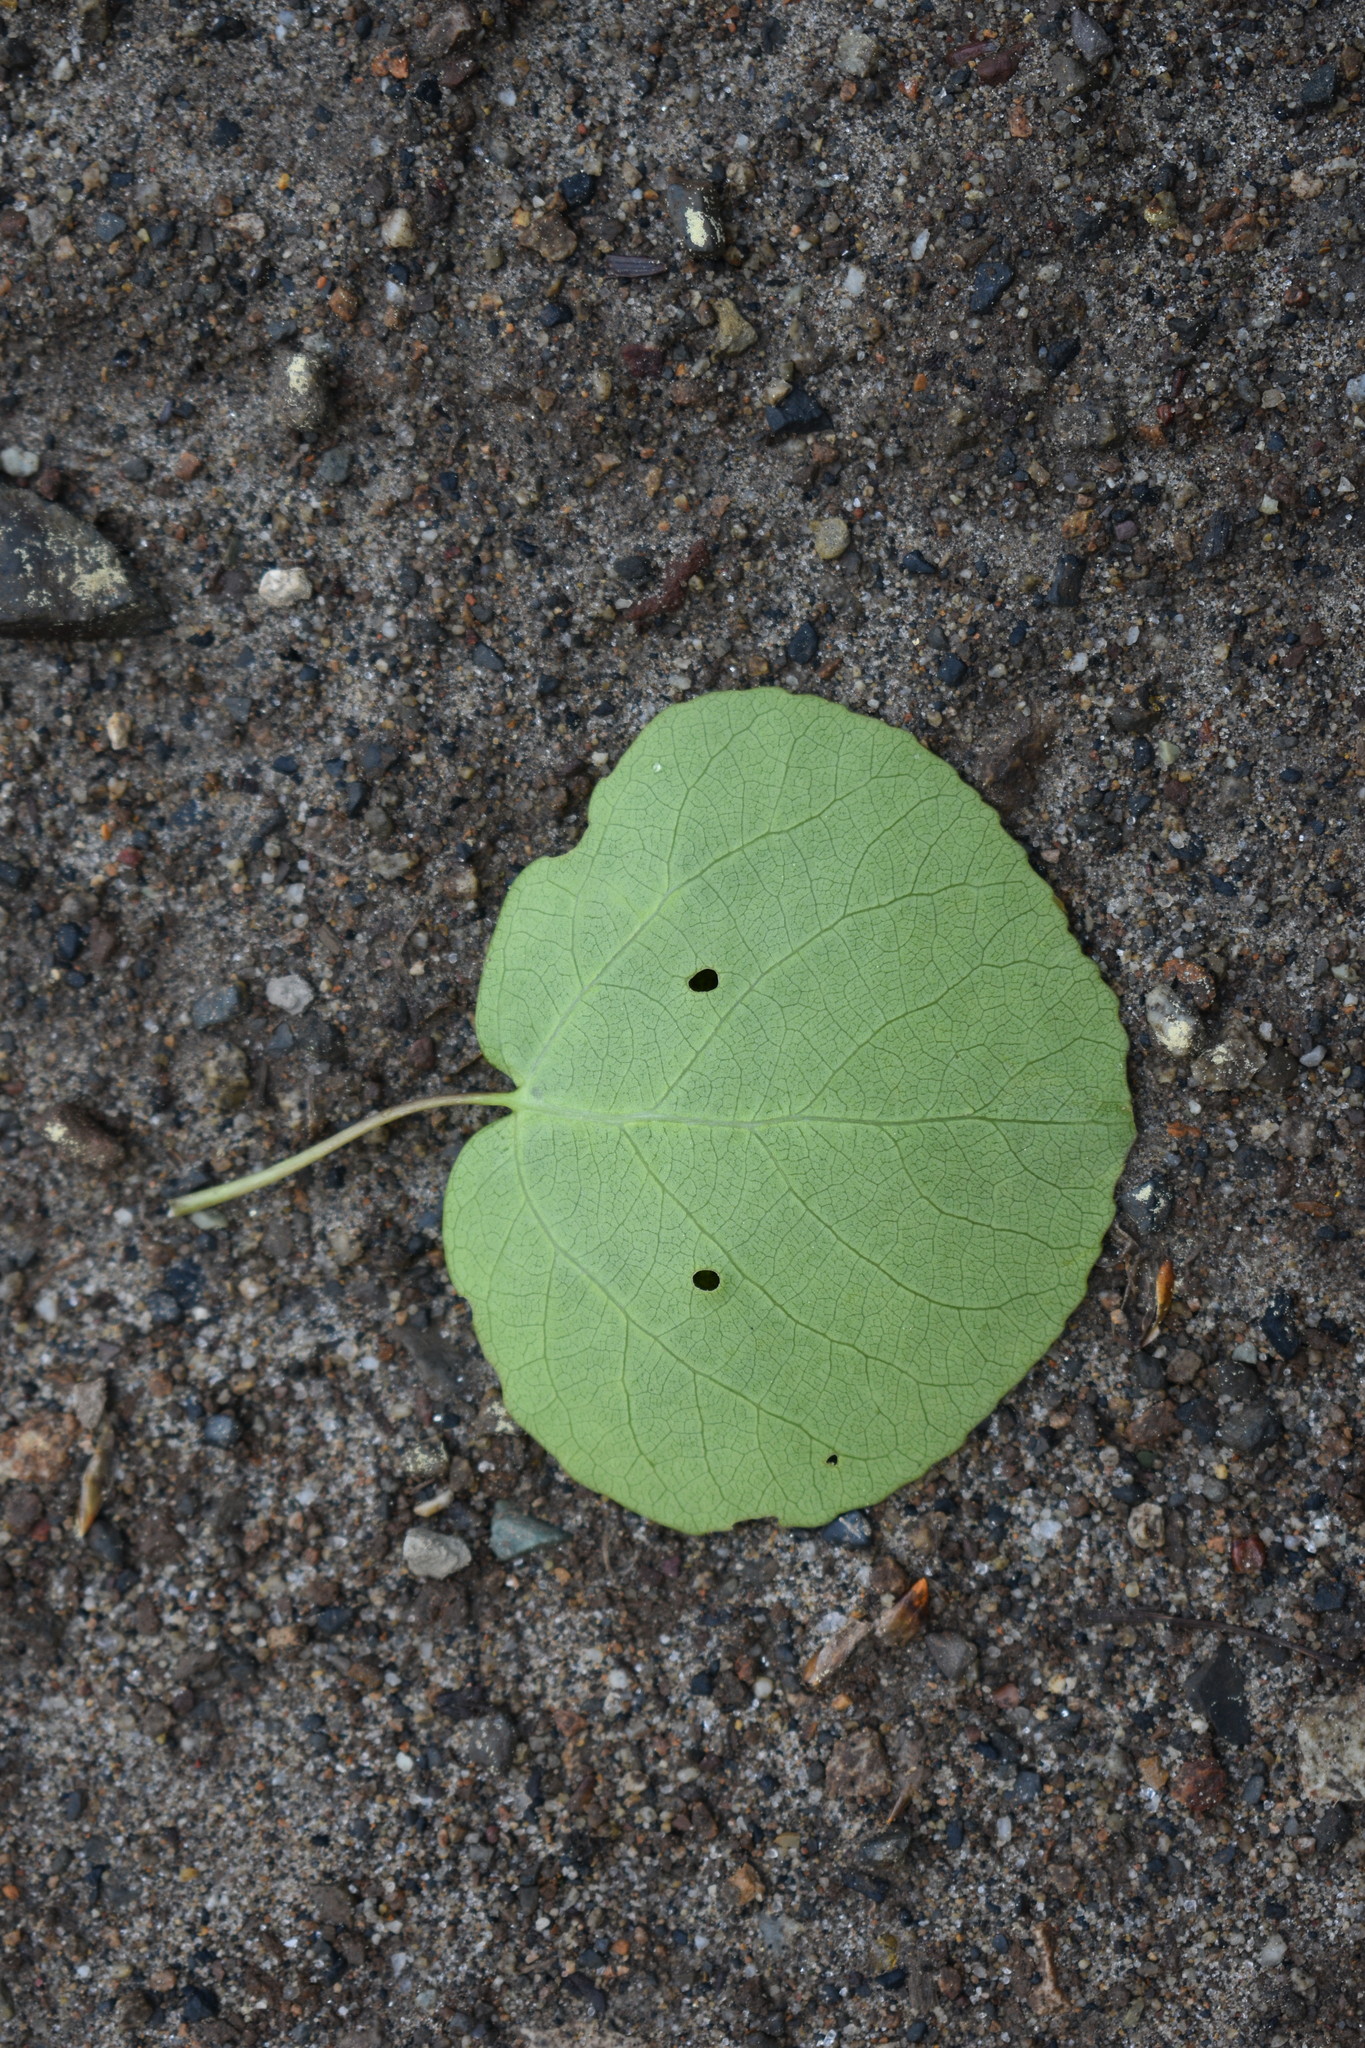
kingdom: Plantae
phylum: Tracheophyta
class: Magnoliopsida
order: Malpighiales
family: Salicaceae
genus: Populus
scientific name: Populus tremuloides
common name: Quaking aspen
